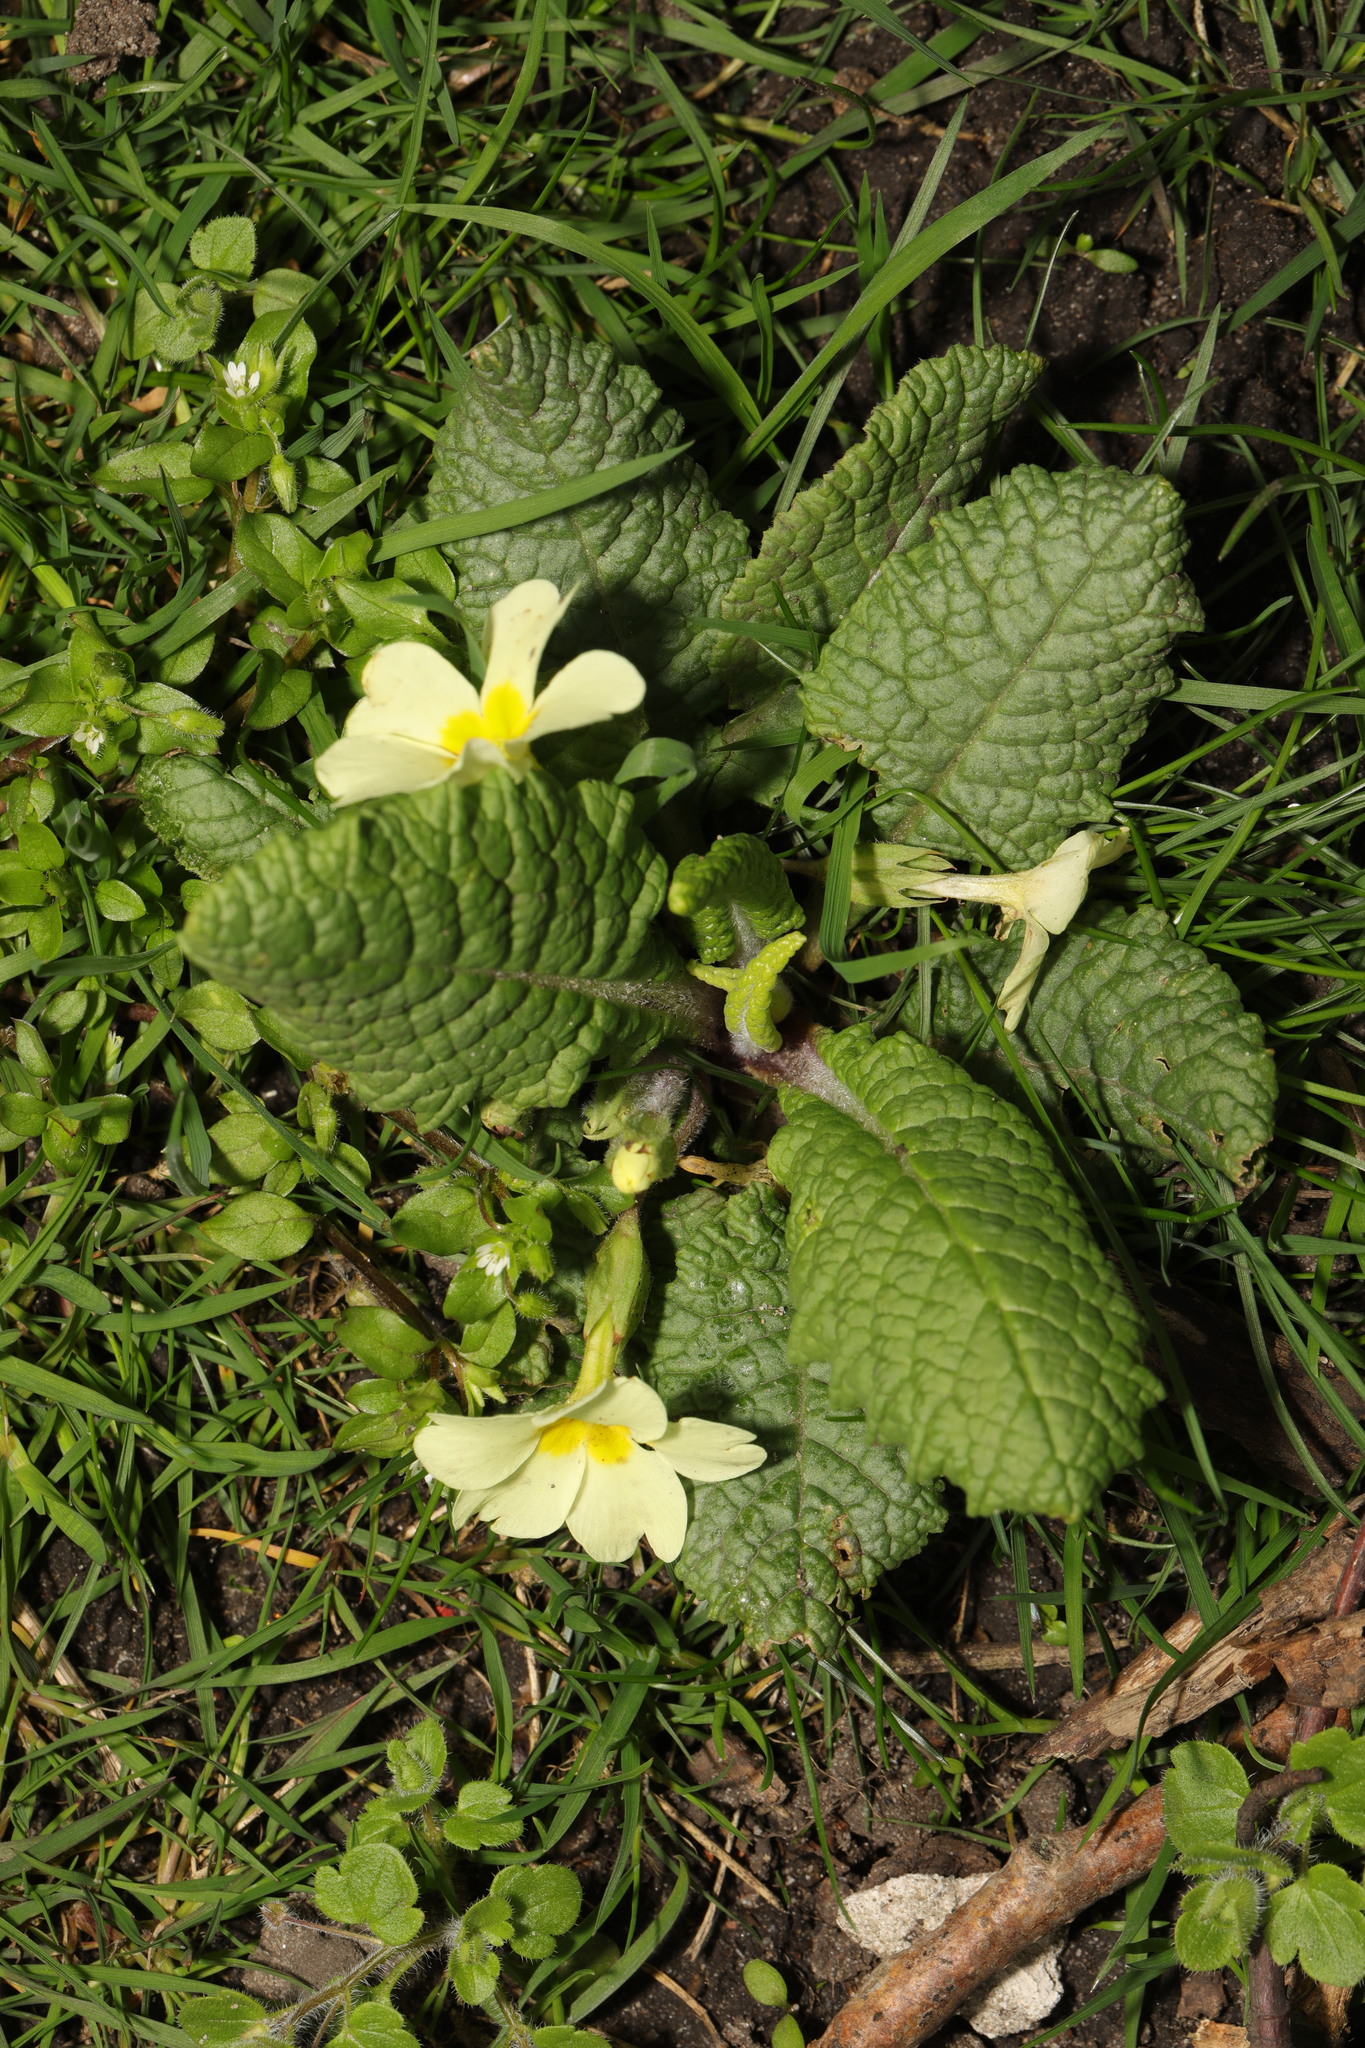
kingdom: Plantae
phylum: Tracheophyta
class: Magnoliopsida
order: Ericales
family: Primulaceae
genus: Primula
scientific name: Primula vulgaris
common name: Primrose
